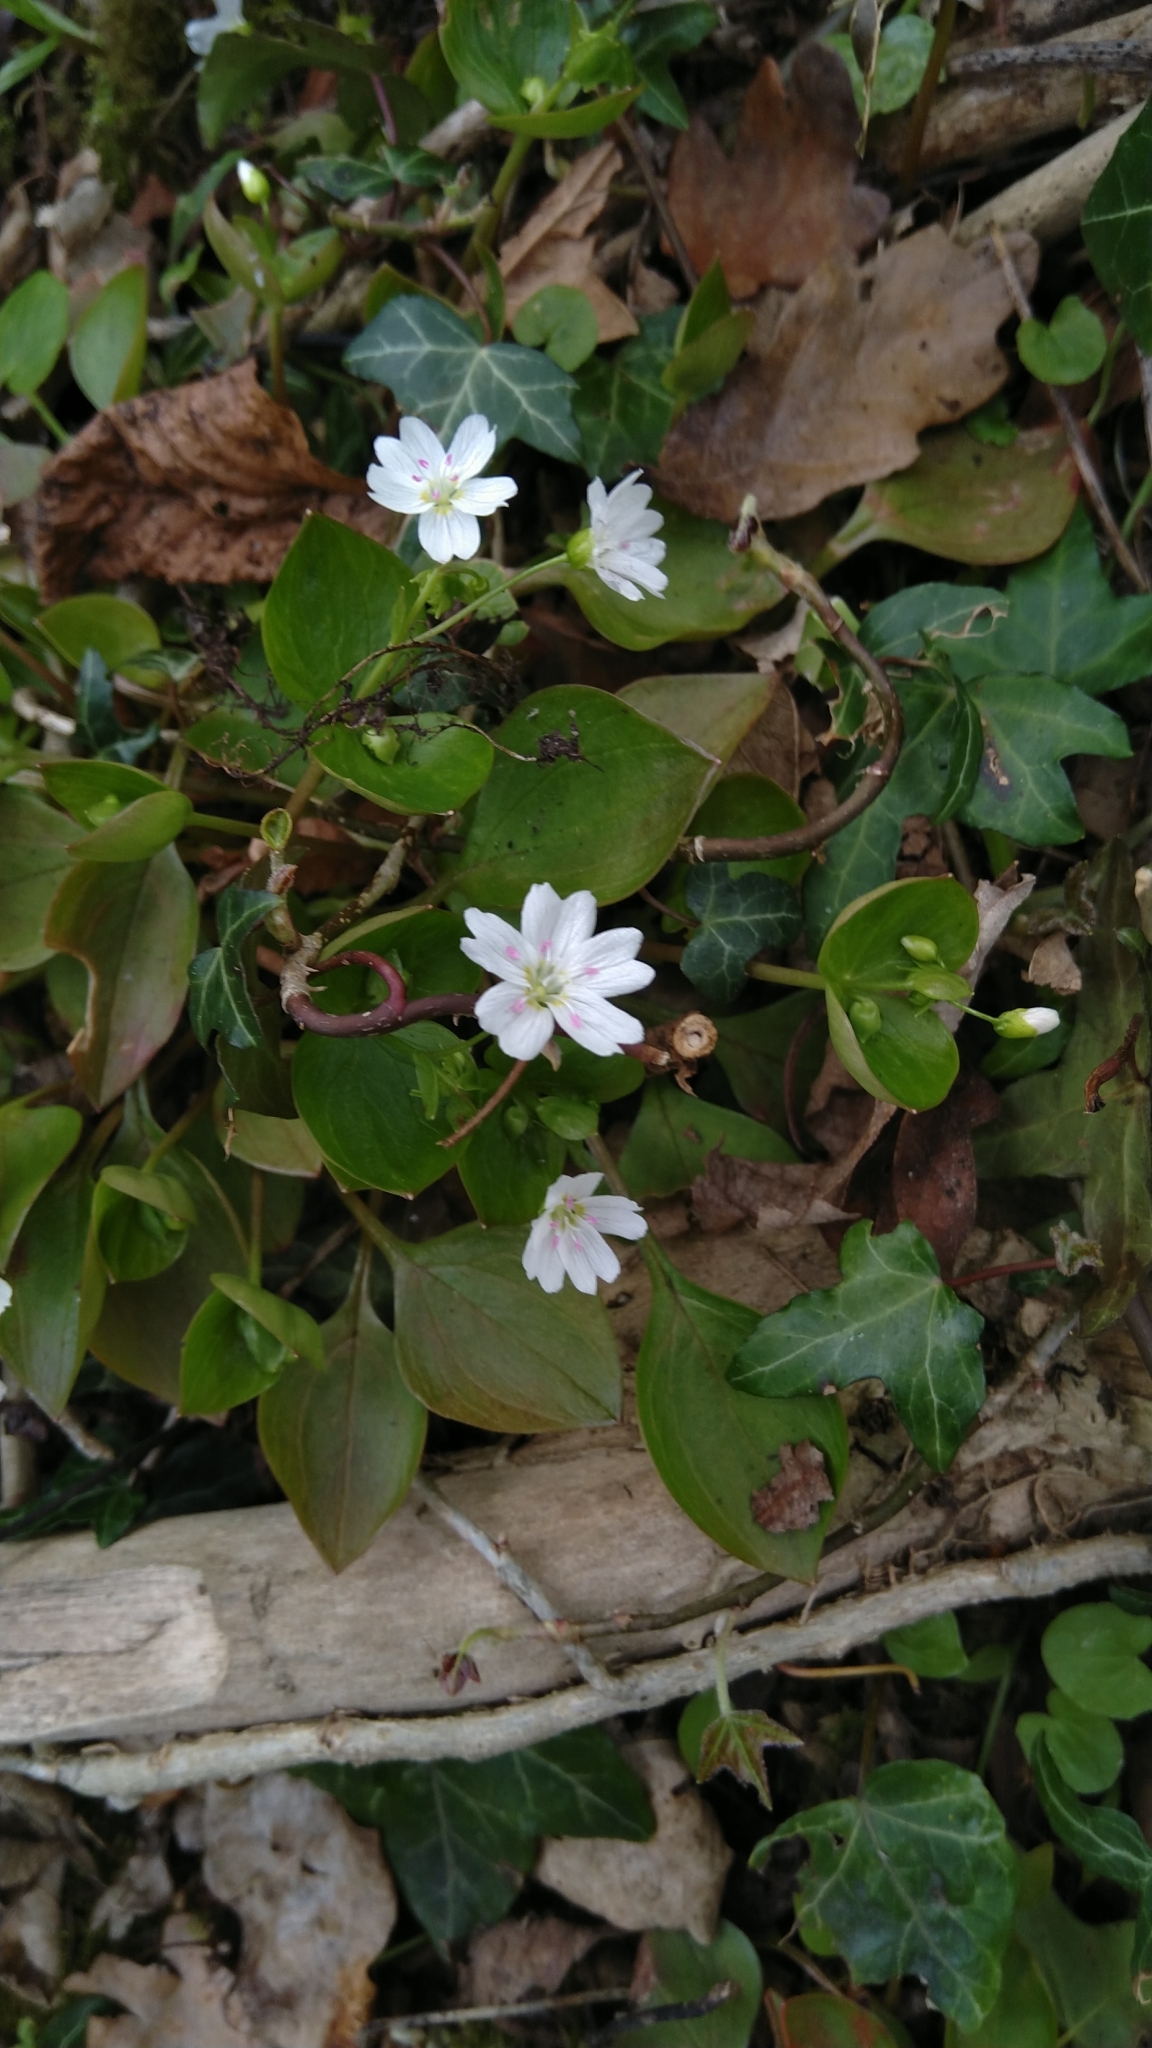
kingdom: Plantae
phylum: Tracheophyta
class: Magnoliopsida
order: Caryophyllales
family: Montiaceae
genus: Claytonia
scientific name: Claytonia sibirica
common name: Pink purslane
